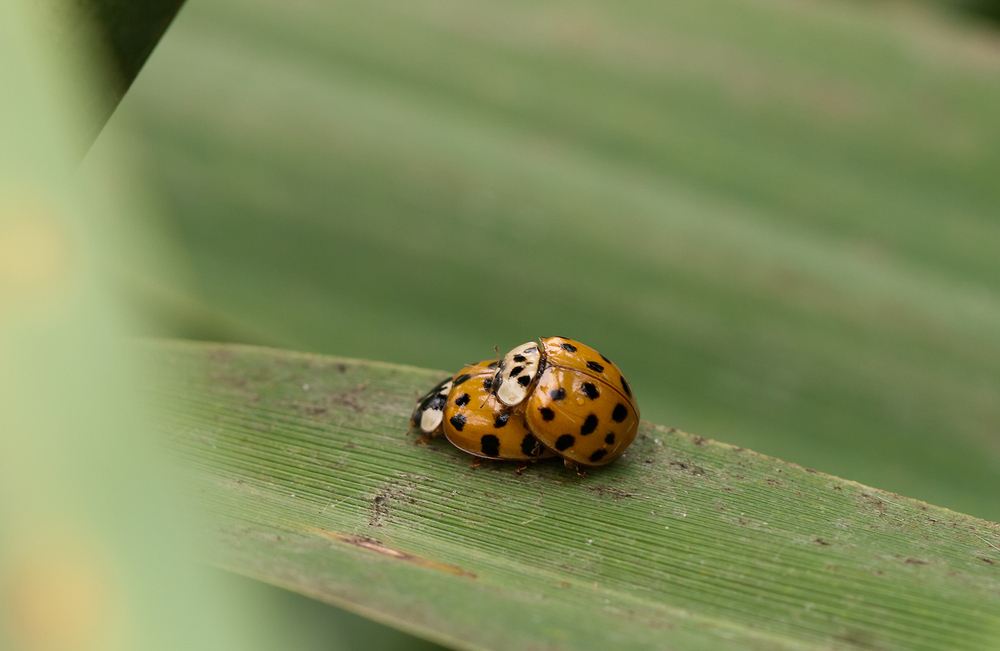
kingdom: Animalia
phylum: Arthropoda
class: Insecta
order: Coleoptera
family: Coccinellidae
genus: Harmonia
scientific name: Harmonia axyridis
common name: Harlequin ladybird
